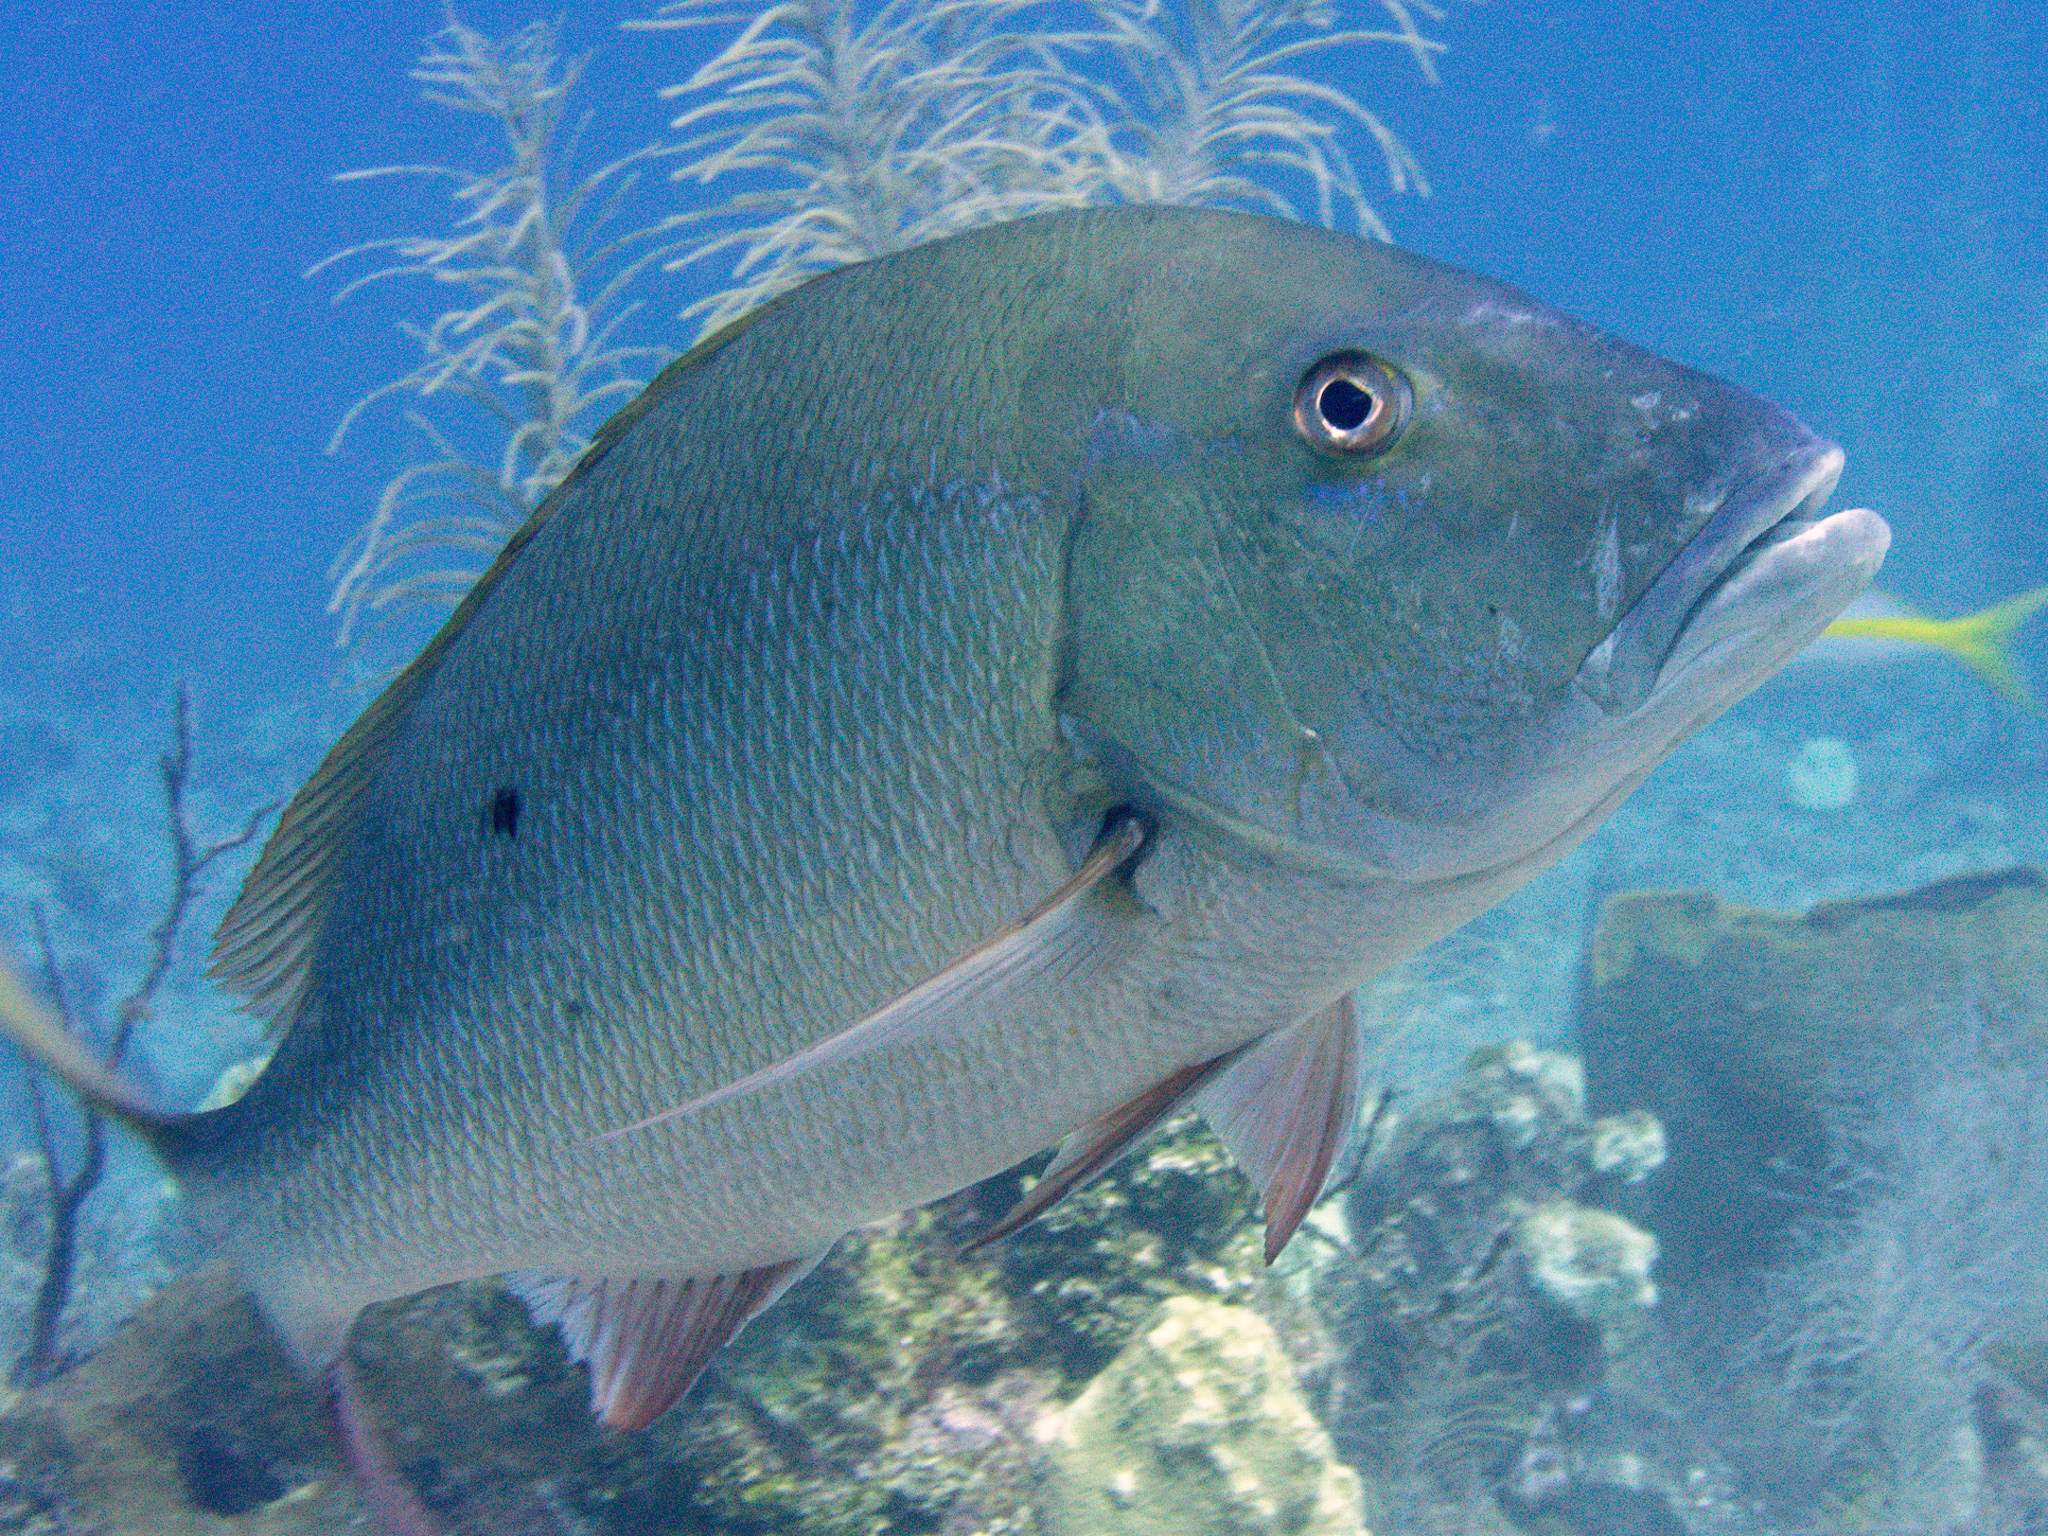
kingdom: Animalia
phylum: Chordata
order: Perciformes
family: Lutjanidae
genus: Lutjanus
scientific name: Lutjanus analis
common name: Mutton snapper
